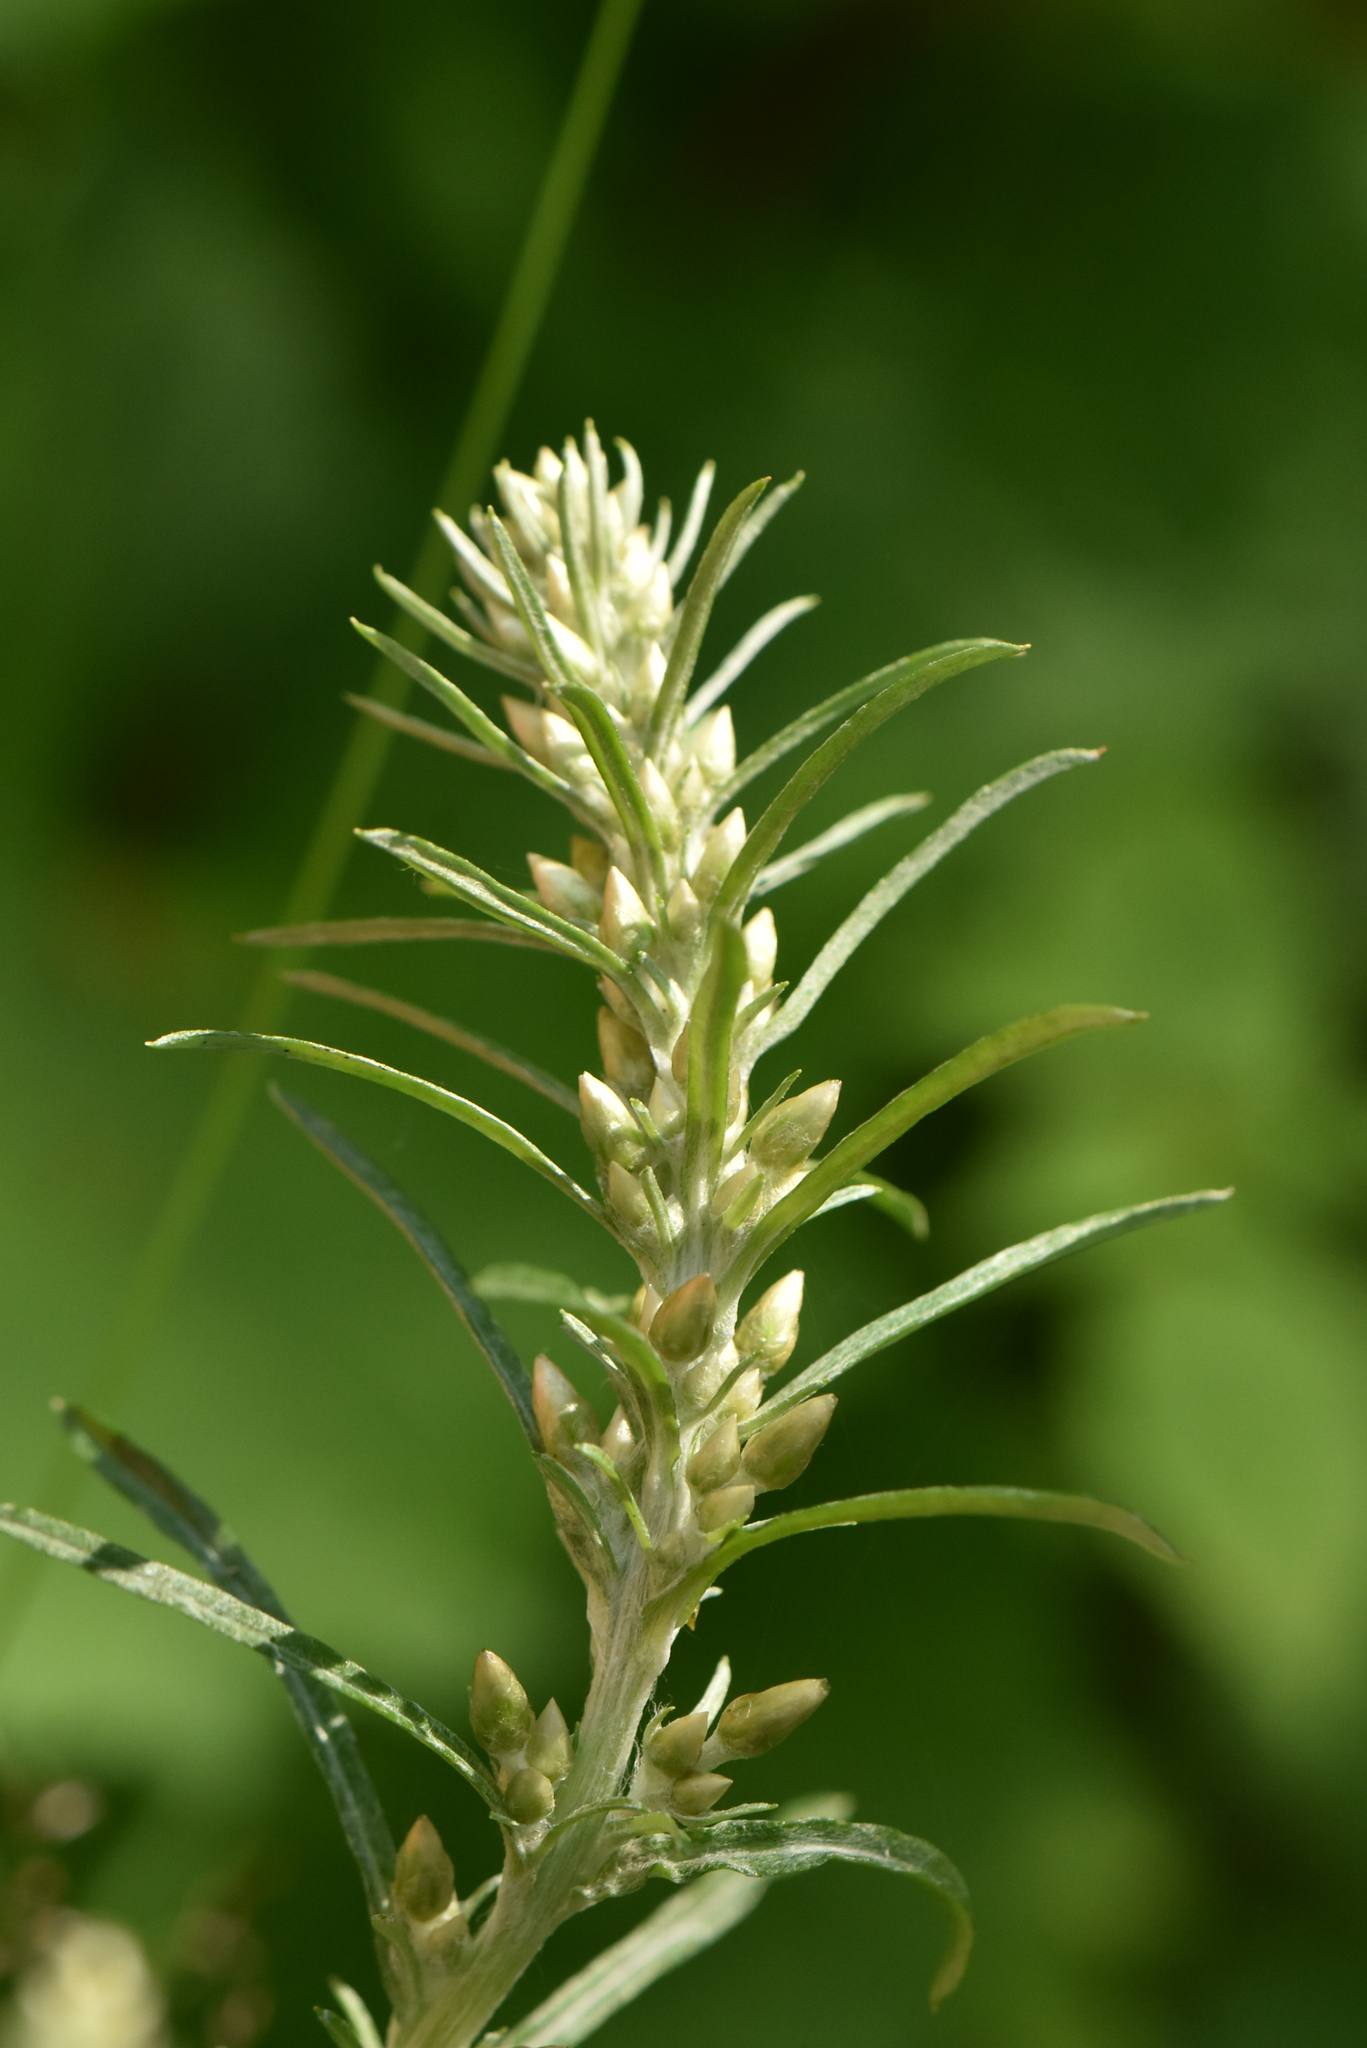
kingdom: Plantae
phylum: Tracheophyta
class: Magnoliopsida
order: Asterales
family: Asteraceae
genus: Omalotheca
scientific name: Omalotheca sylvatica
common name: Heath cudweed
